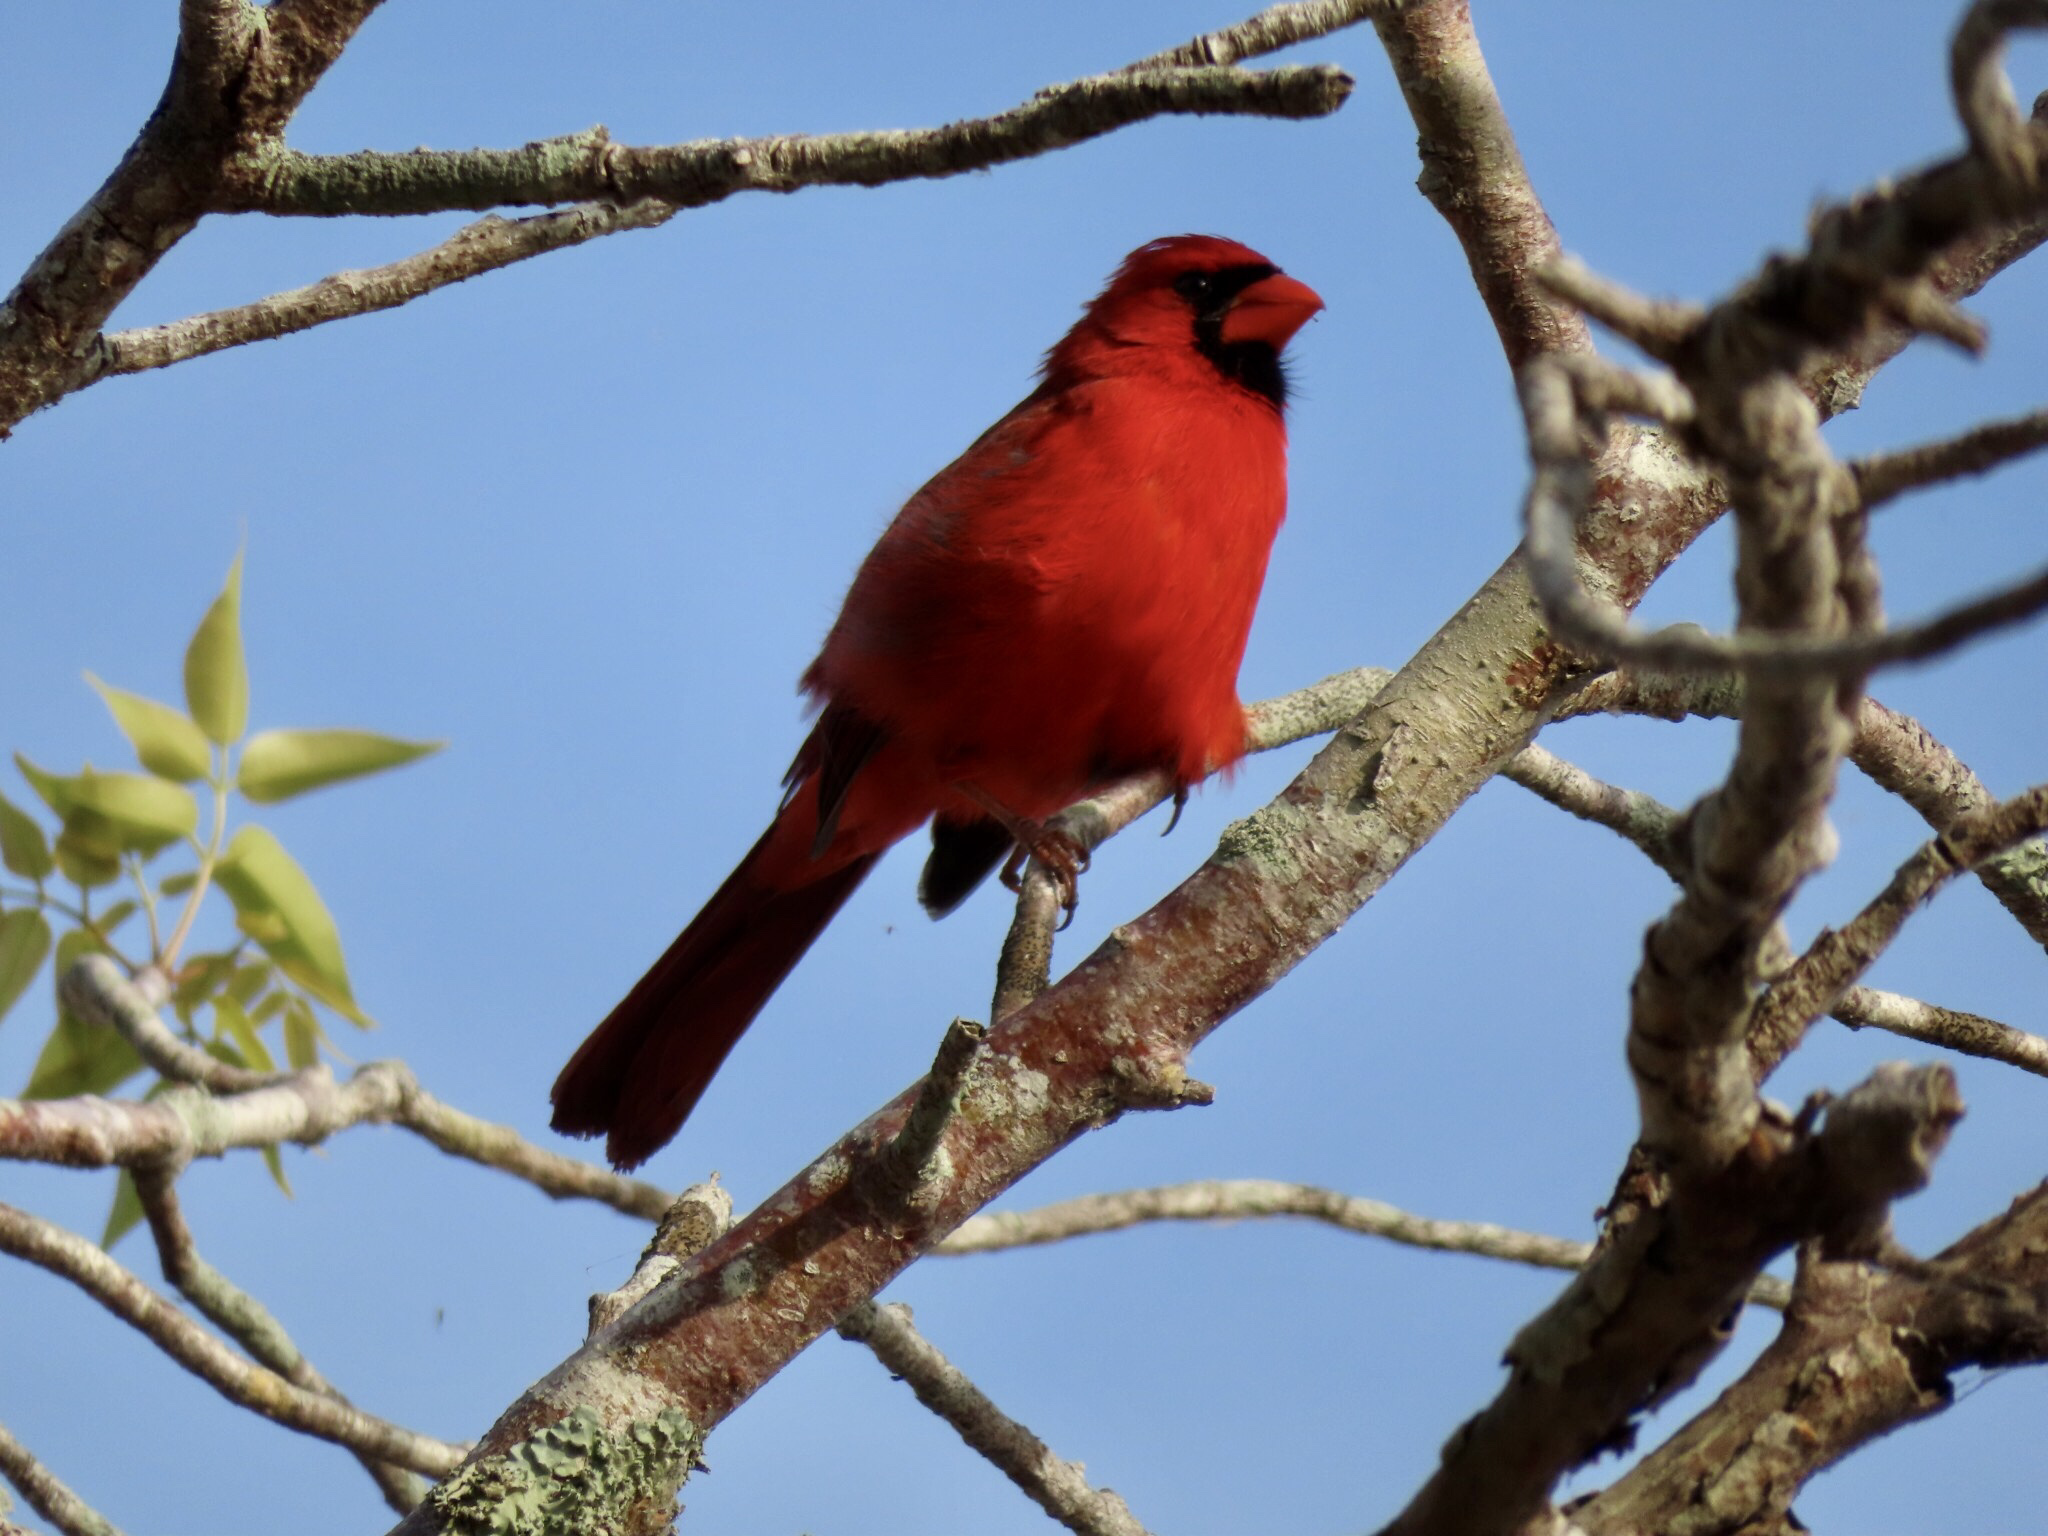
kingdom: Animalia
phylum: Chordata
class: Aves
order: Passeriformes
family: Cardinalidae
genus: Cardinalis
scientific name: Cardinalis cardinalis
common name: Northern cardinal
